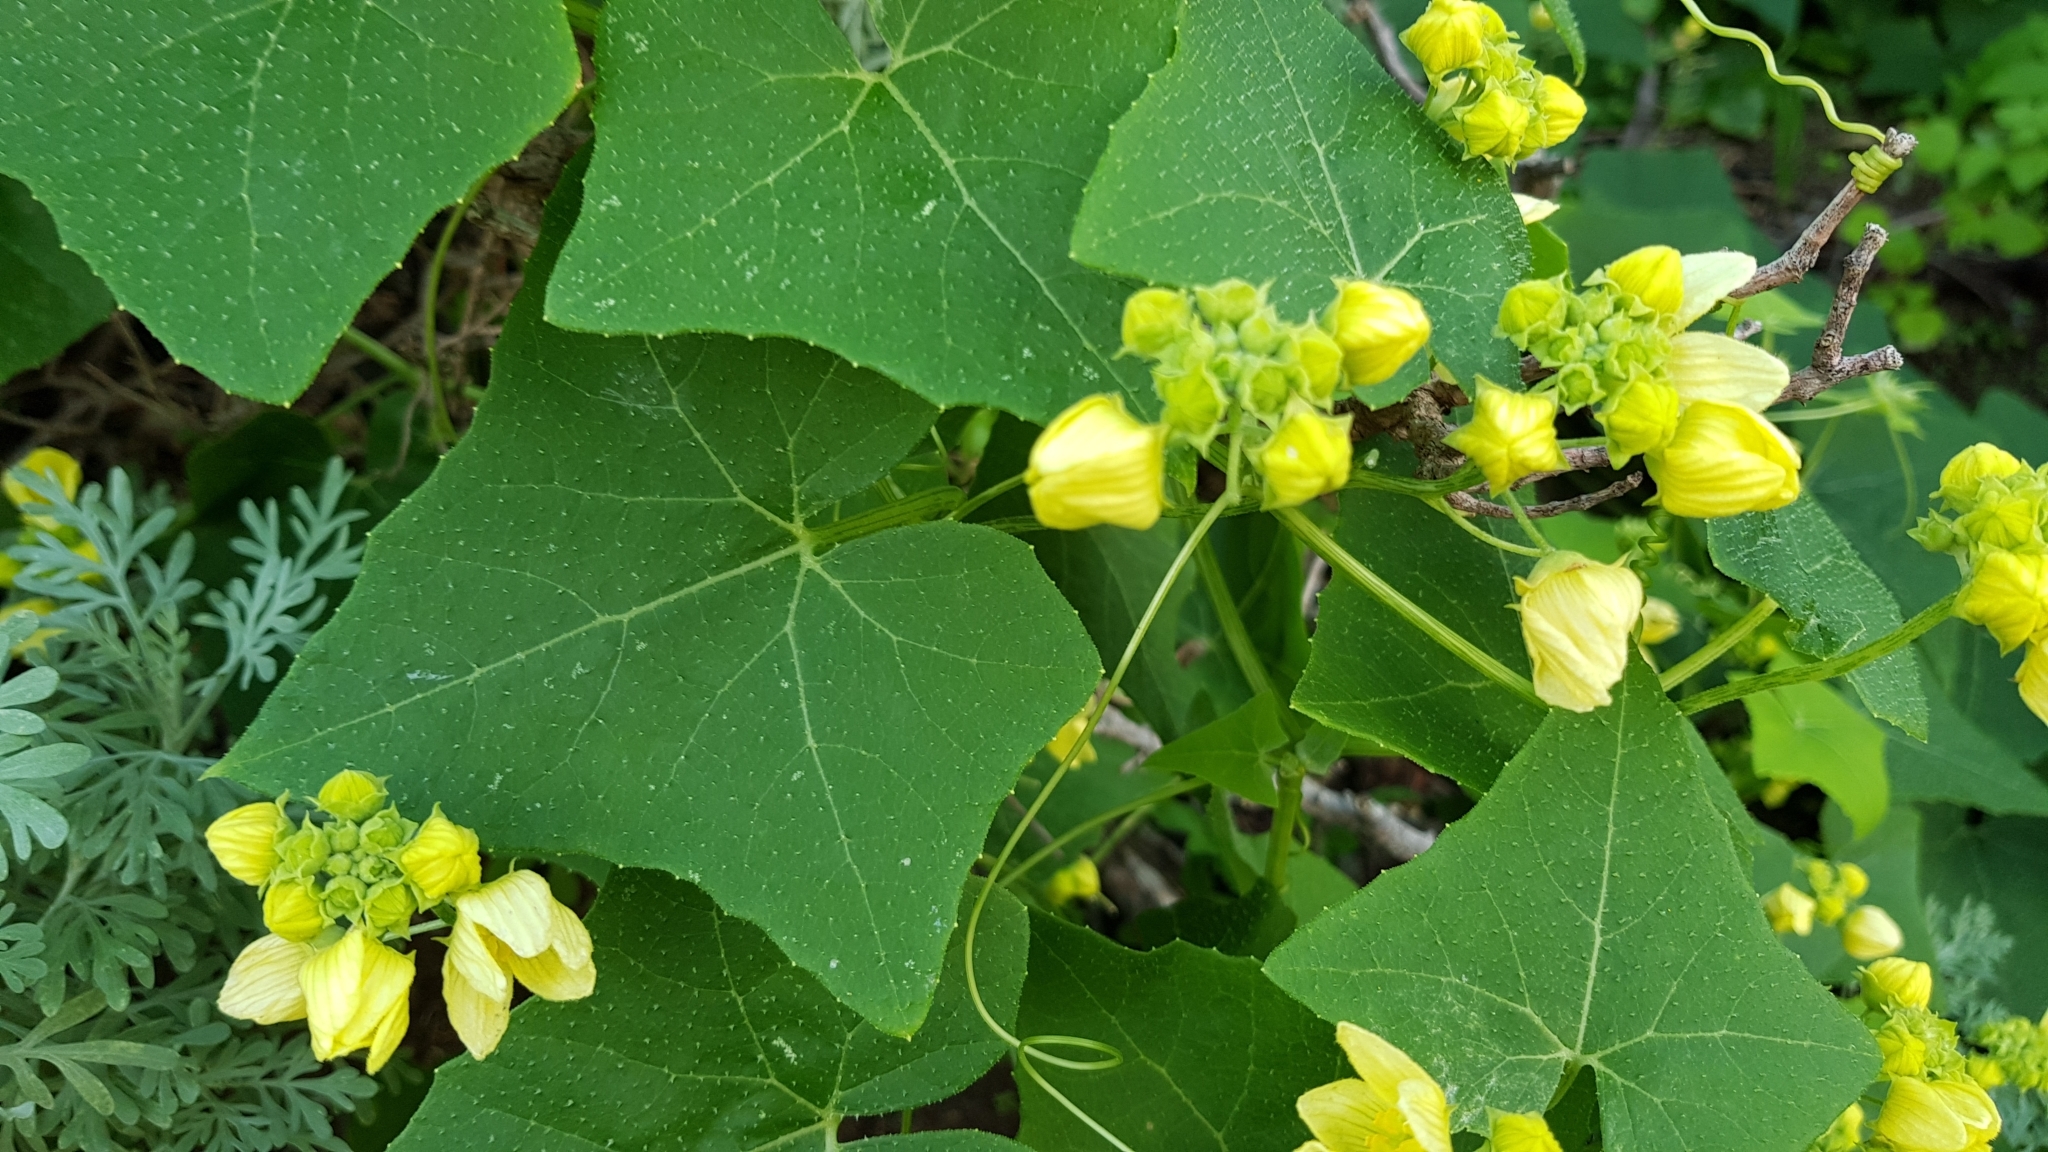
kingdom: Plantae
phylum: Tracheophyta
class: Magnoliopsida
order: Cucurbitales
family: Cucurbitaceae
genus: Bryonia
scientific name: Bryonia verrucosa
